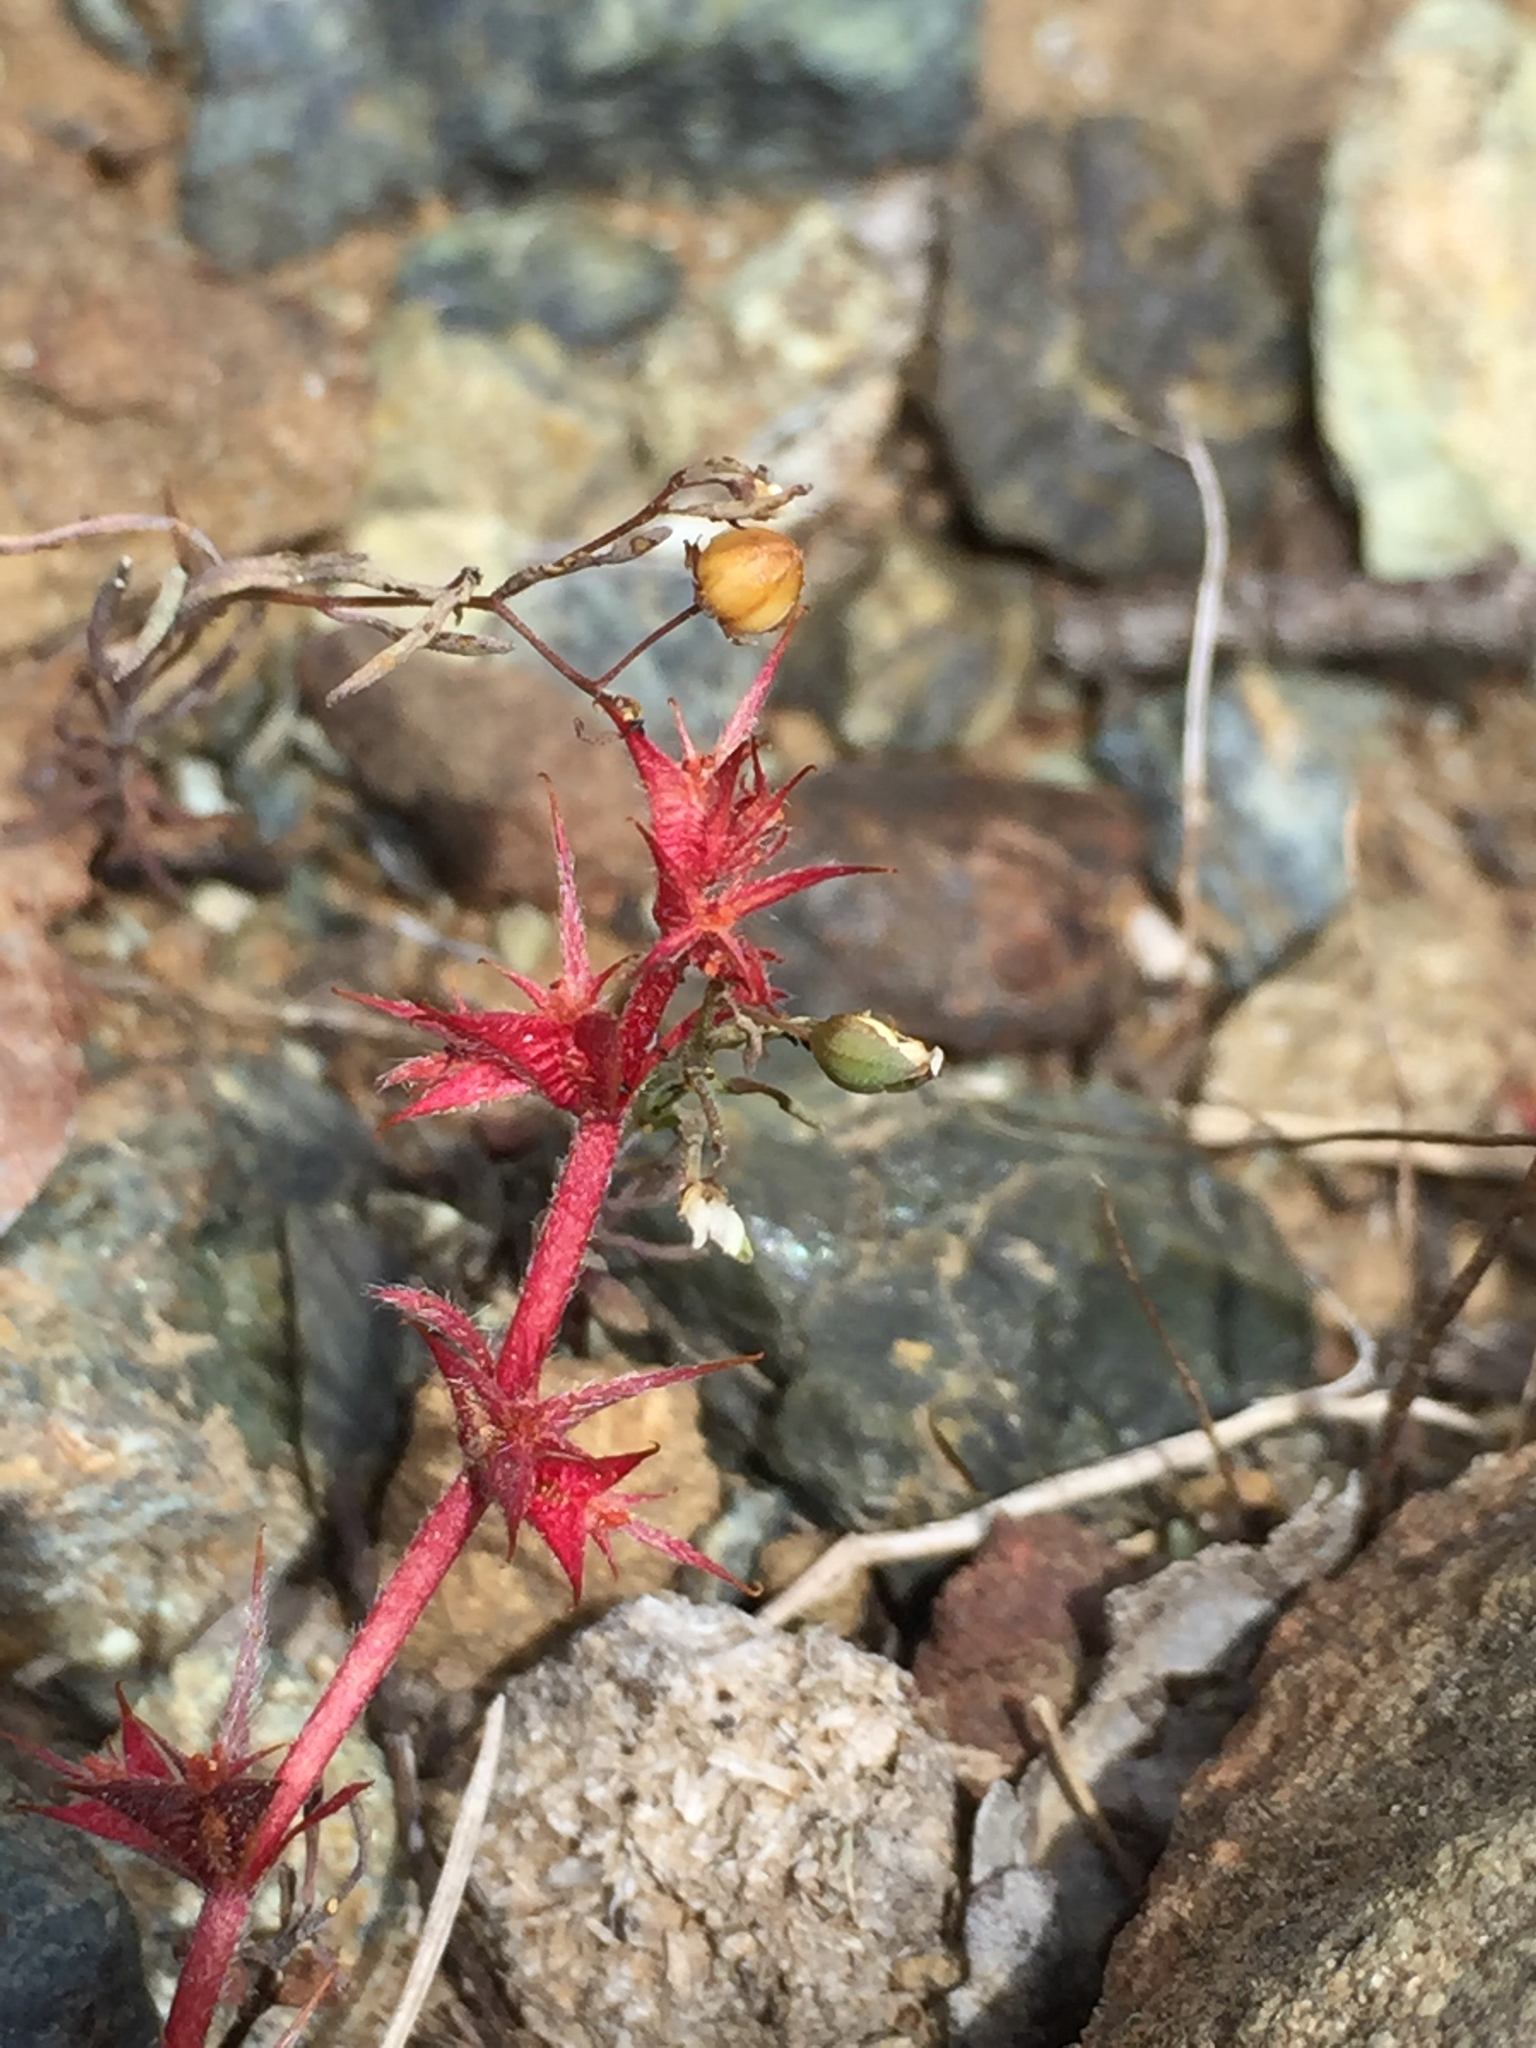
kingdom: Plantae
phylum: Tracheophyta
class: Magnoliopsida
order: Caryophyllales
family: Polygonaceae
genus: Chorizanthe
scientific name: Chorizanthe polygonoides
